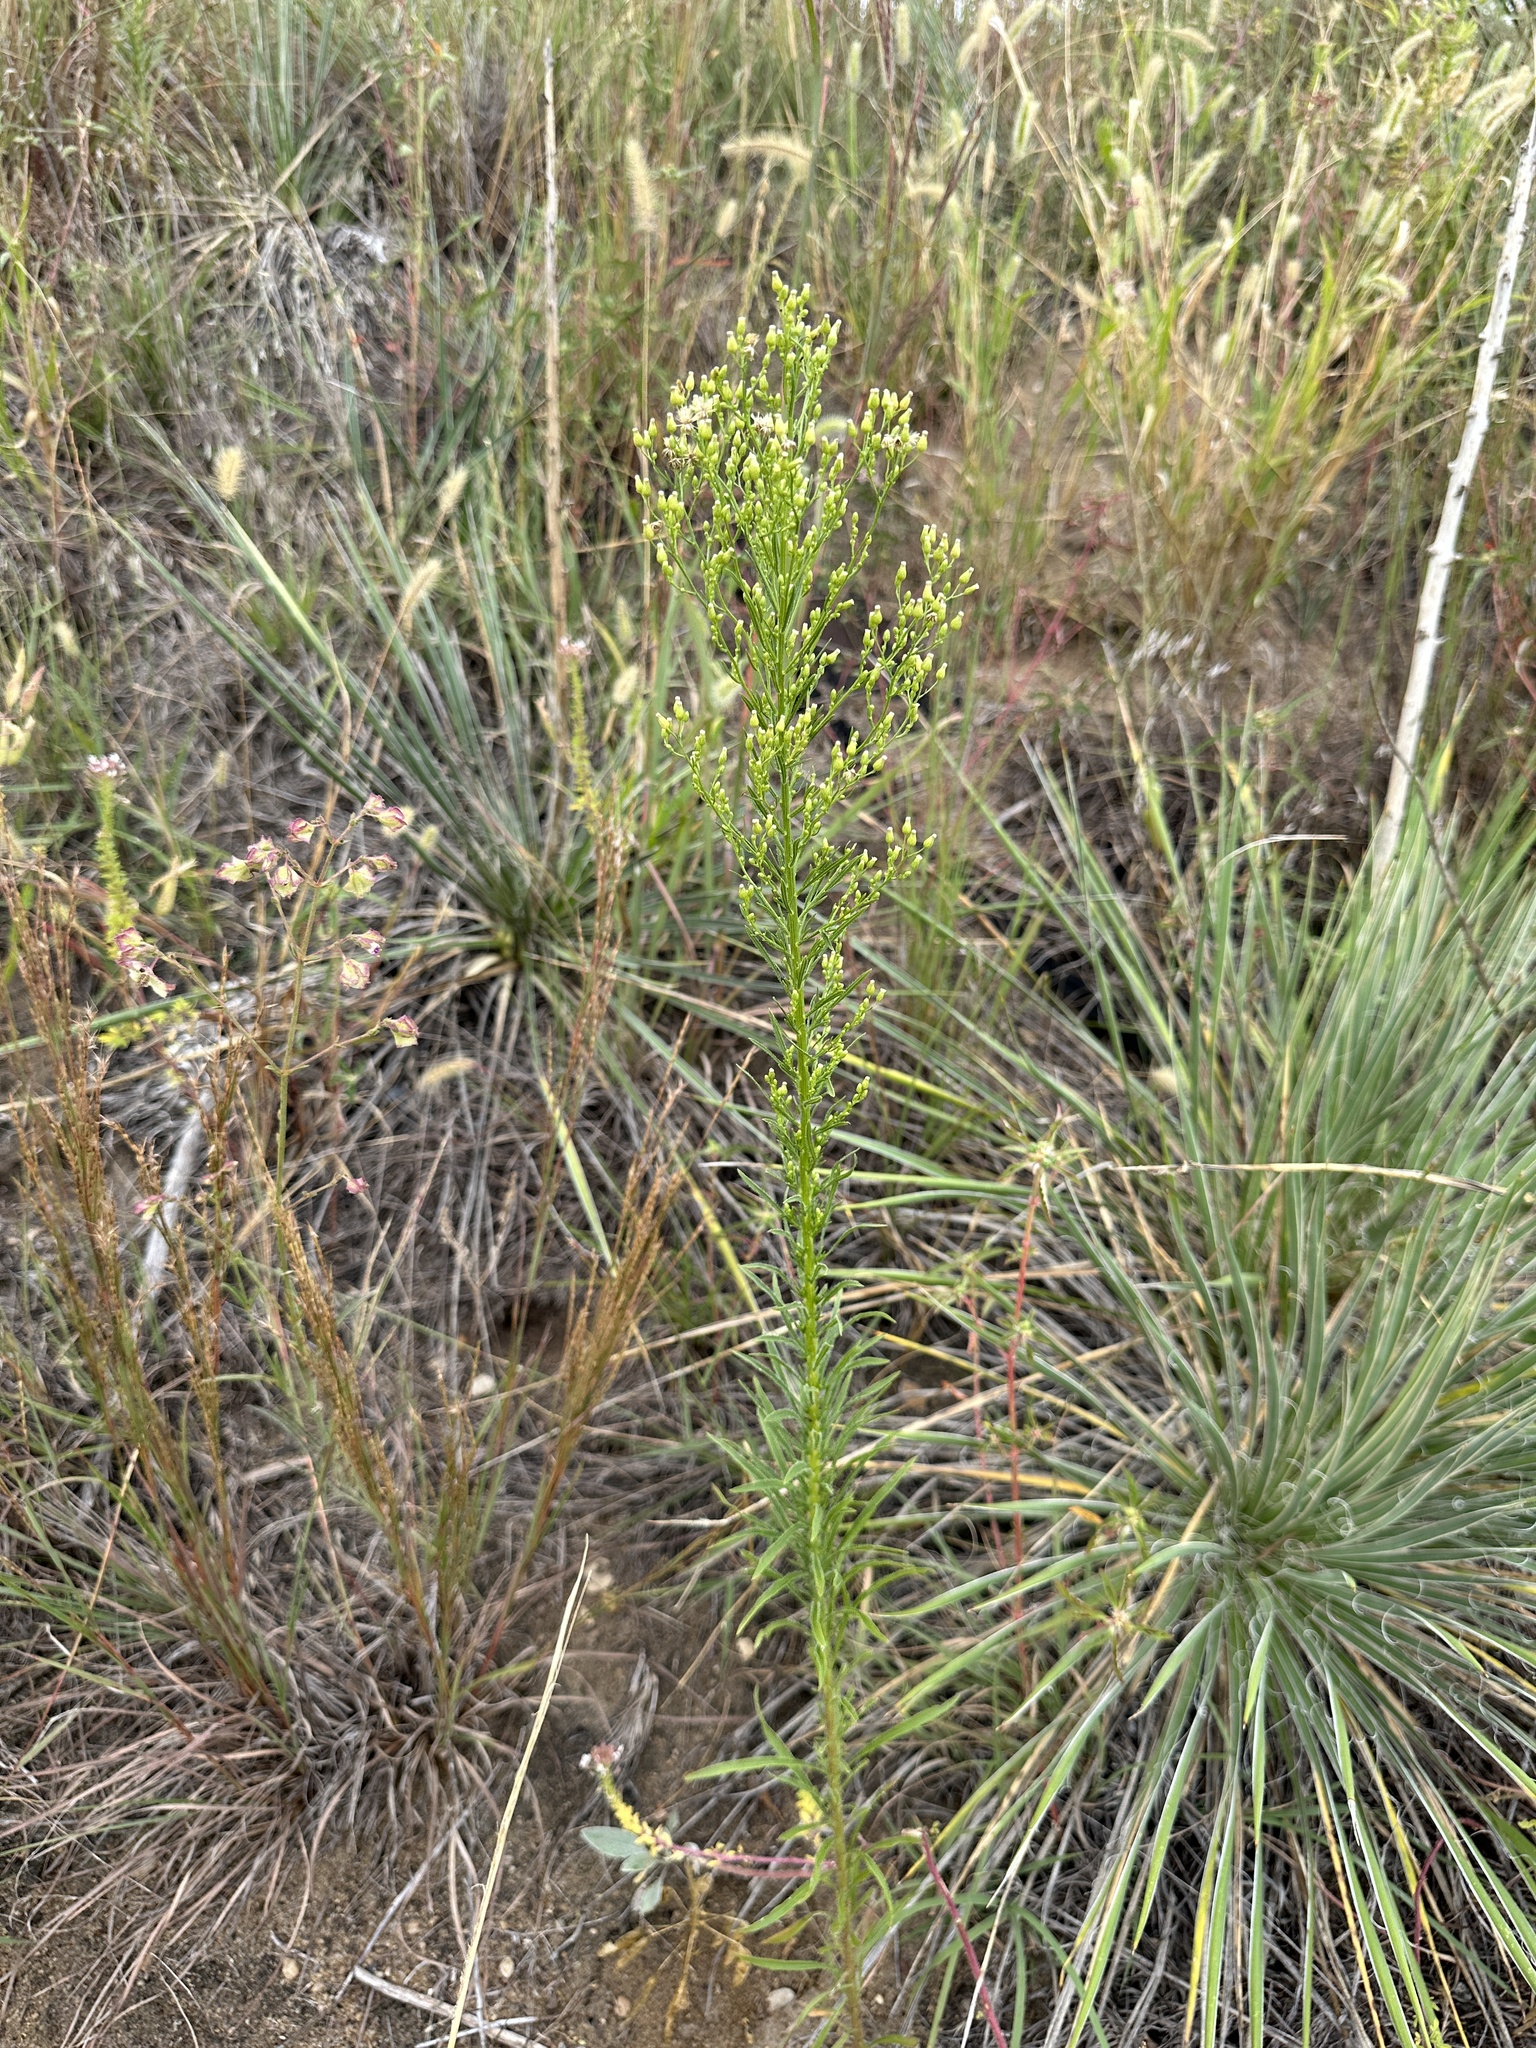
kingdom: Plantae
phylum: Tracheophyta
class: Magnoliopsida
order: Asterales
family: Asteraceae
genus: Erigeron
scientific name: Erigeron canadensis
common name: Canadian fleabane
